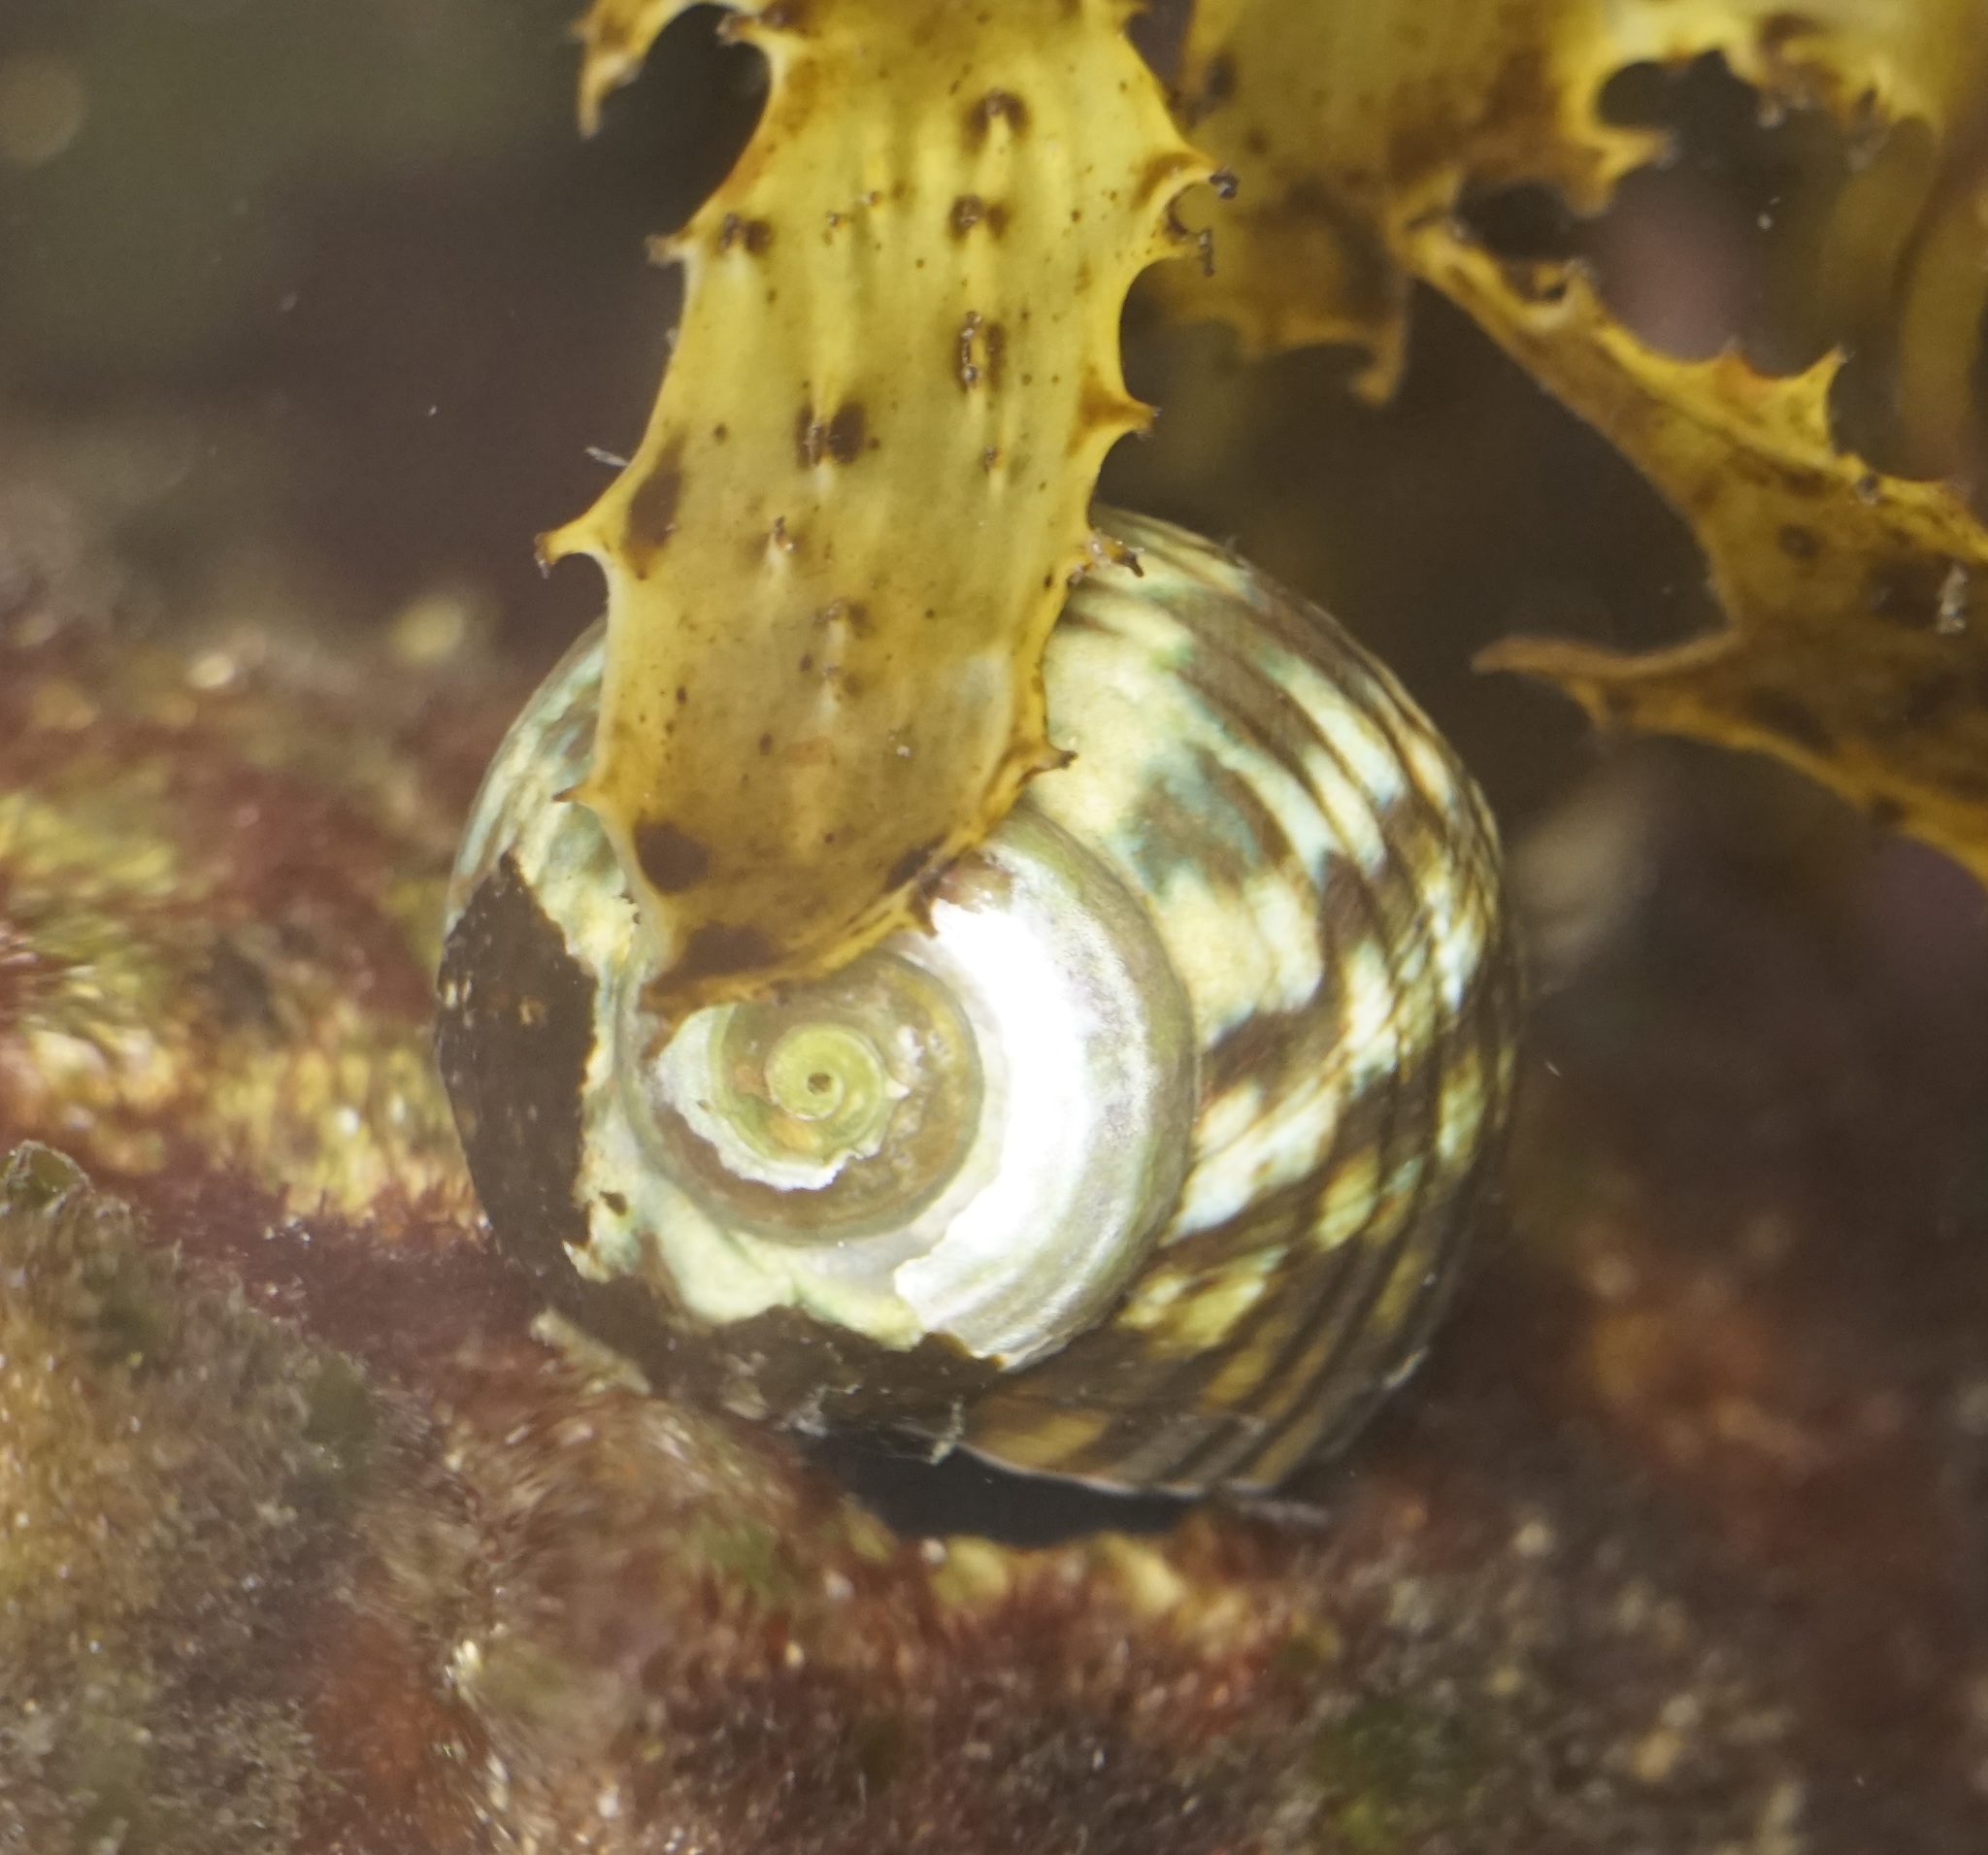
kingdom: Animalia
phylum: Mollusca
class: Gastropoda
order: Trochida
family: Turbinidae
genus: Lunella
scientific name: Lunella undulata
